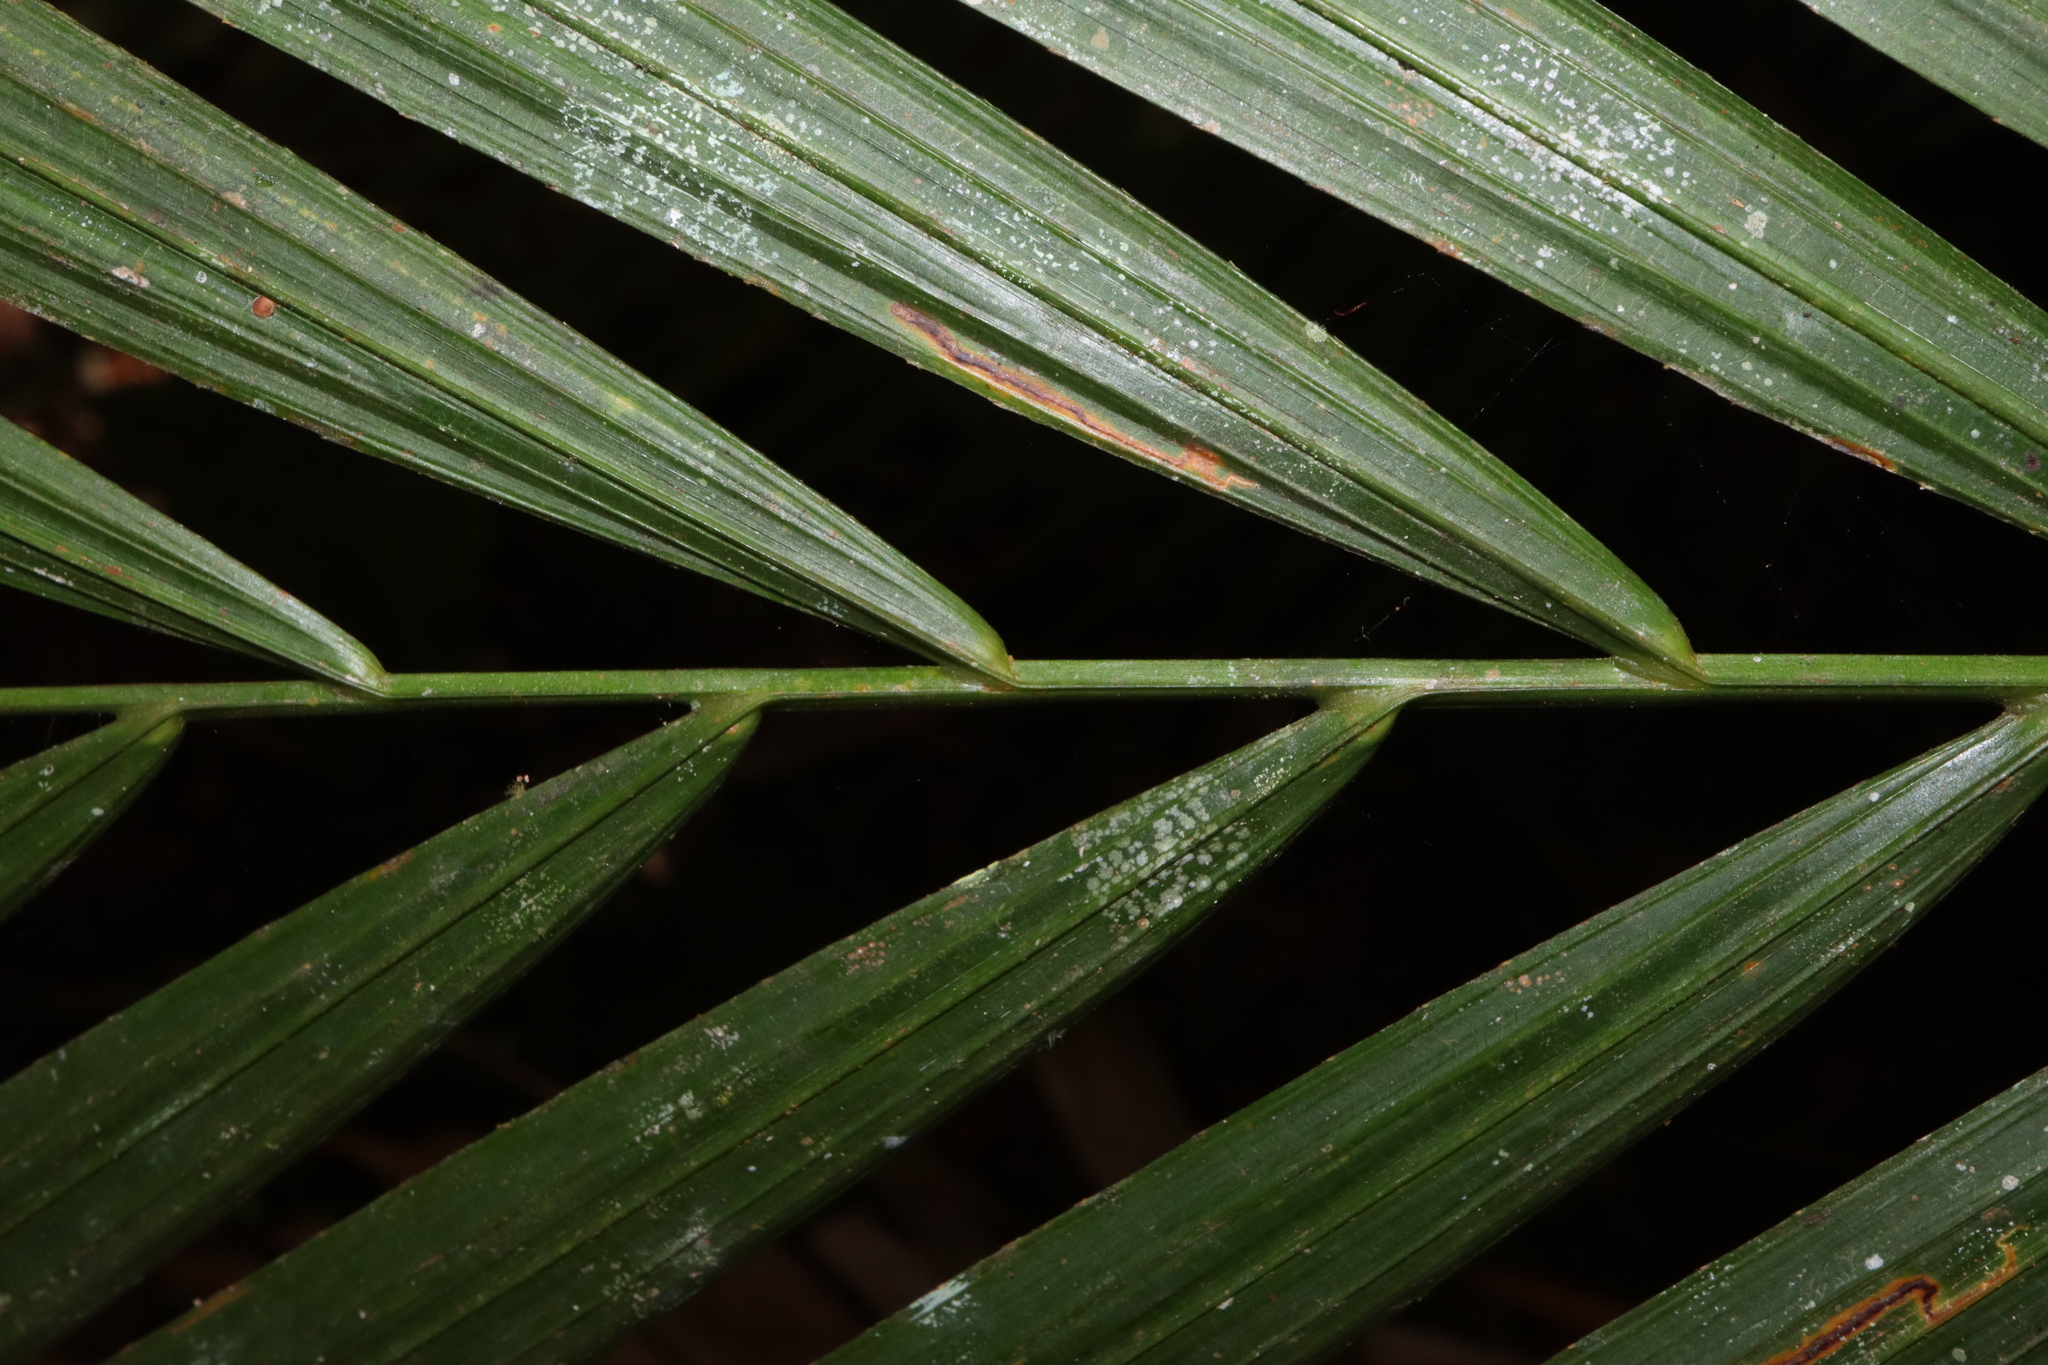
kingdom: Plantae
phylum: Tracheophyta
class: Liliopsida
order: Arecales
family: Arecaceae
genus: Calamus
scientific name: Calamus moti
